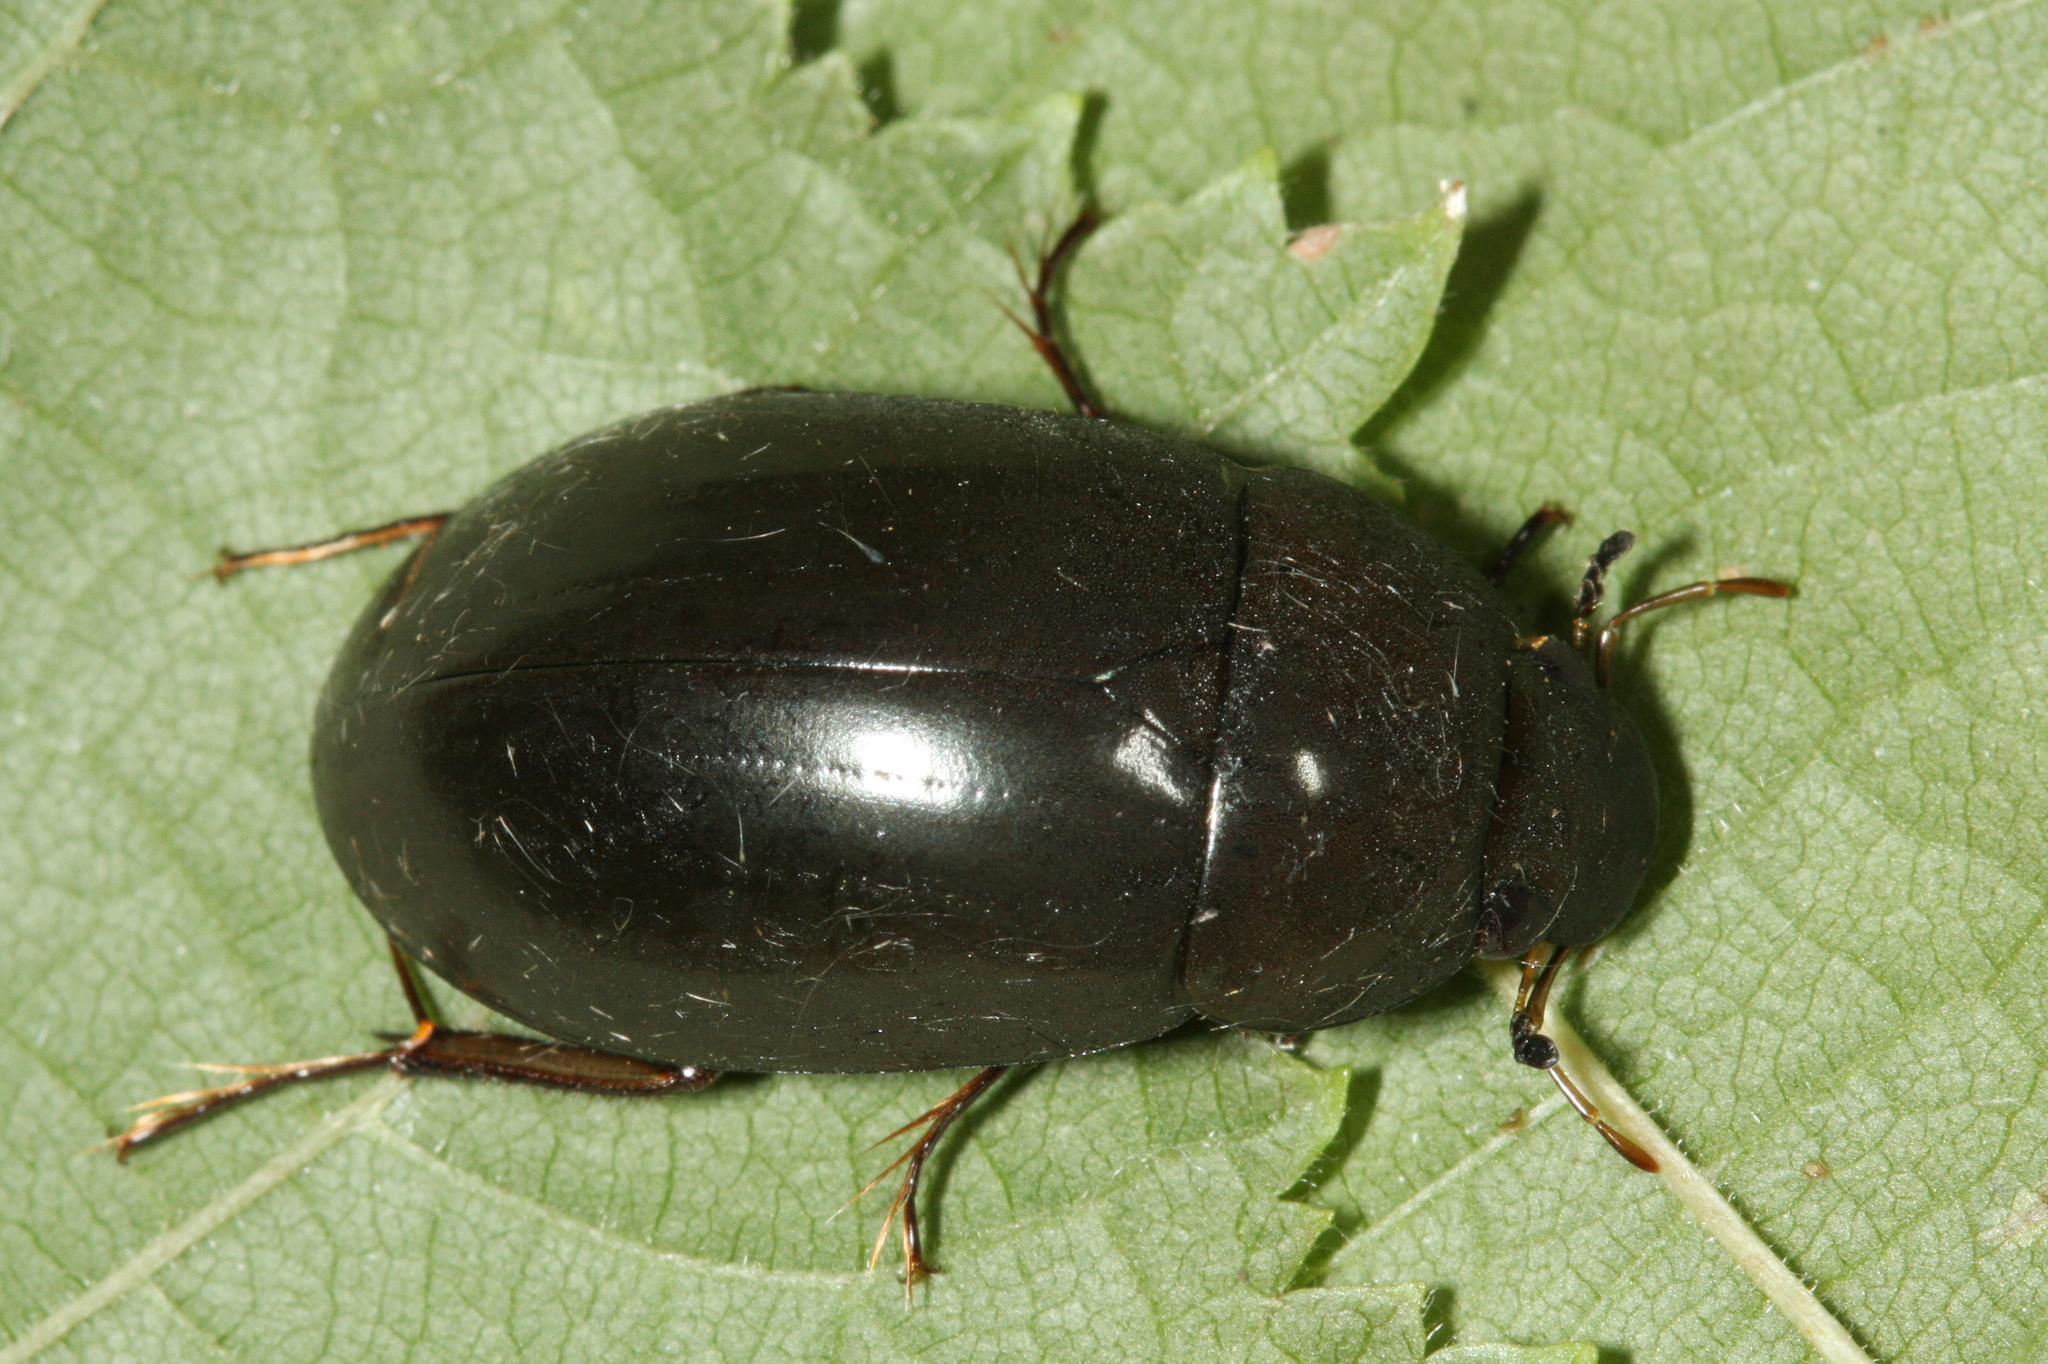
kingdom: Animalia
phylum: Arthropoda
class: Insecta
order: Coleoptera
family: Hydrophilidae
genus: Hydrochara
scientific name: Hydrochara caraboides
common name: Lesser silver water beetle
